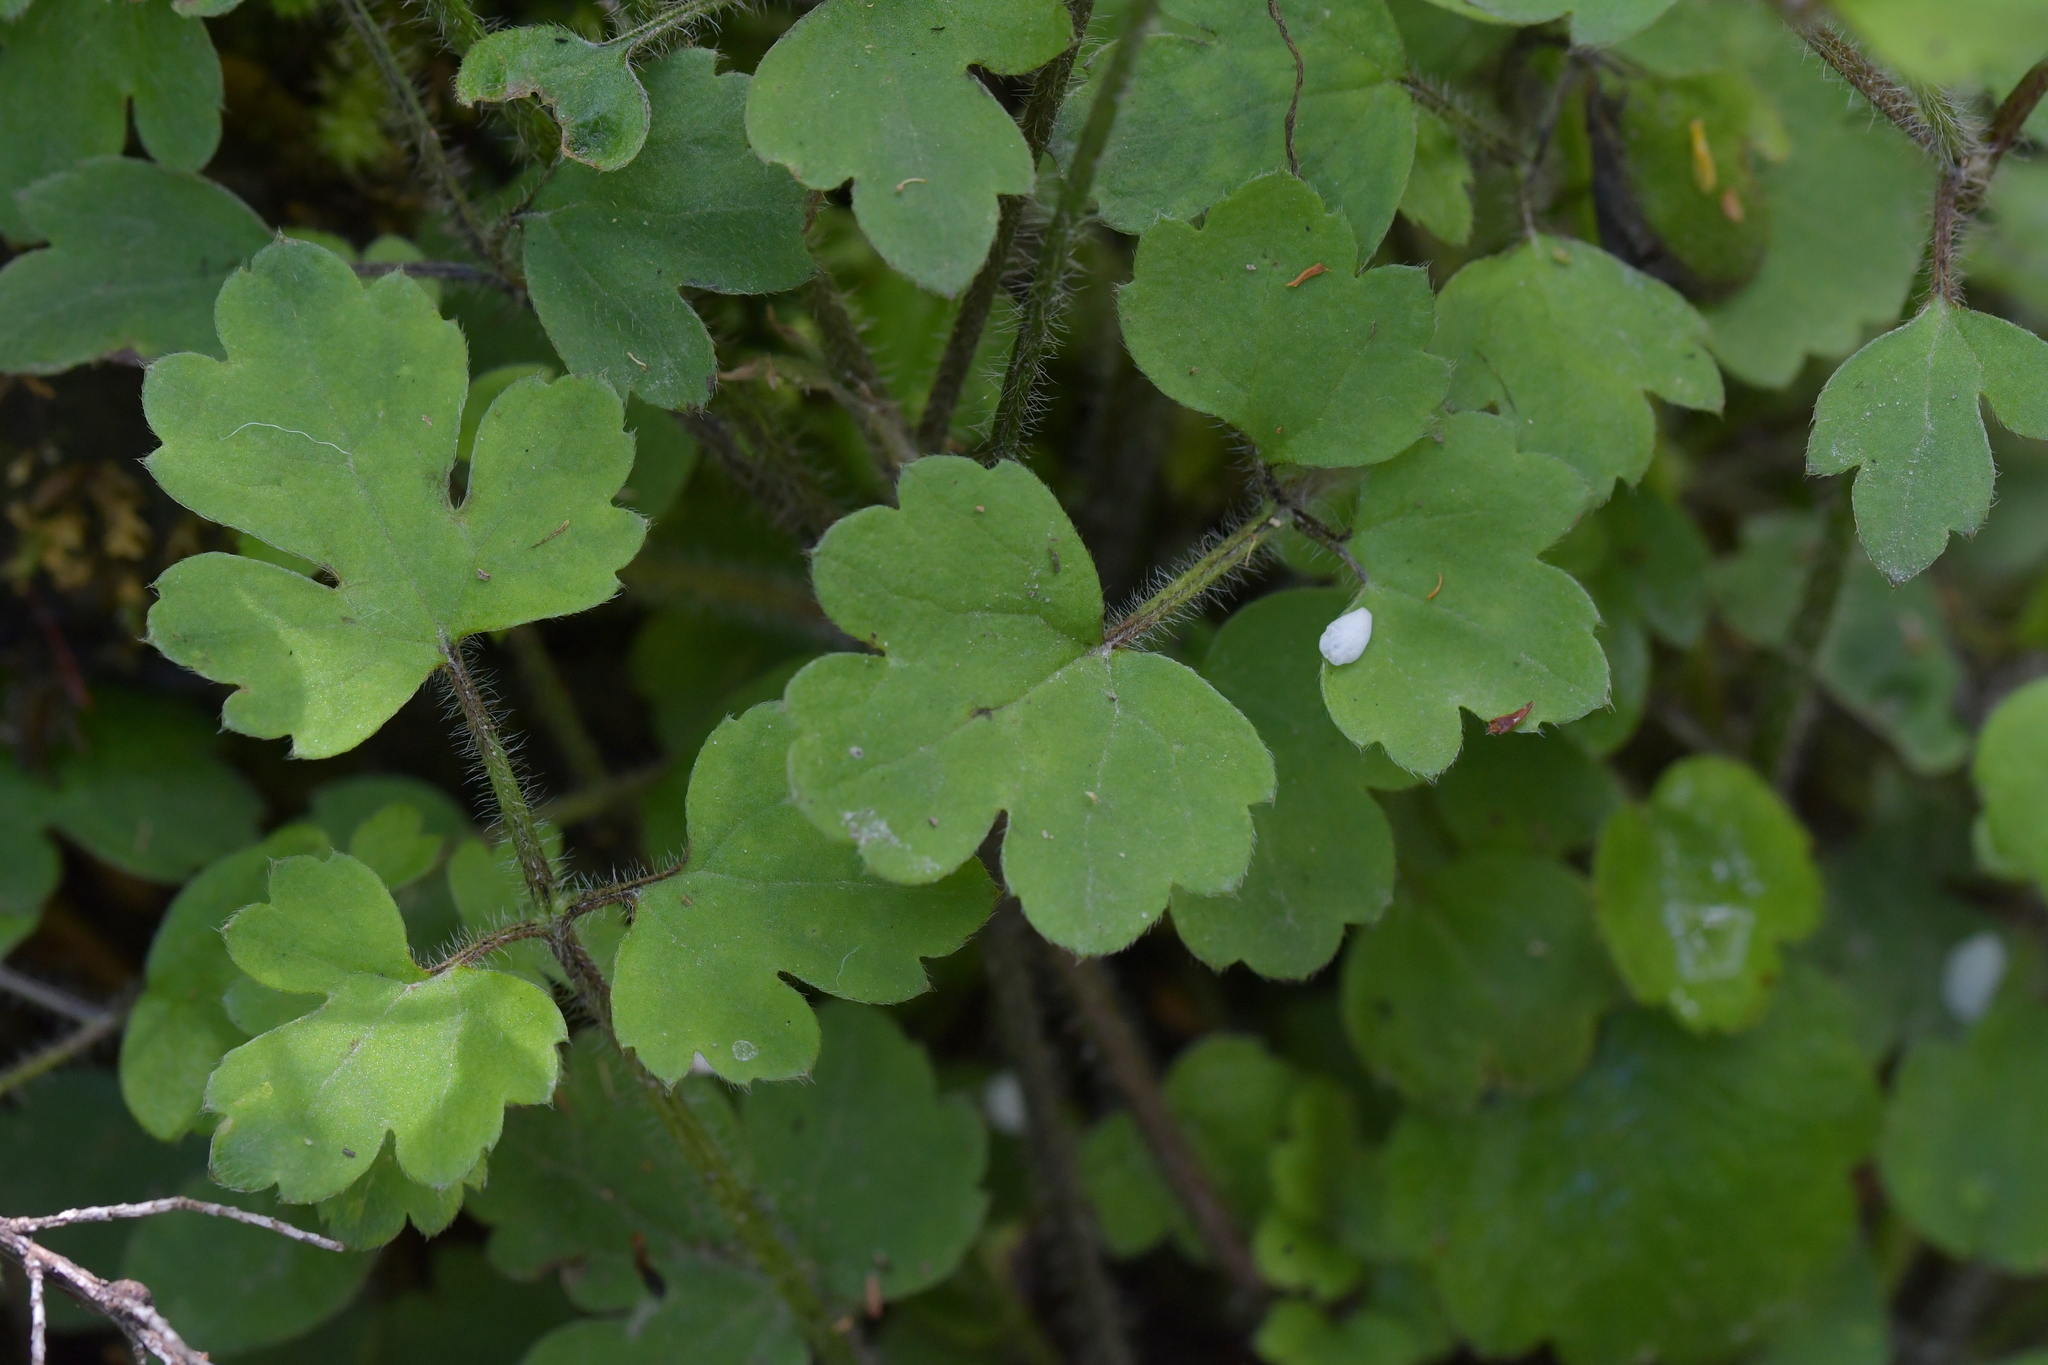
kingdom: Plantae
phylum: Tracheophyta
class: Magnoliopsida
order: Ranunculales
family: Ranunculaceae
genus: Ranunculus
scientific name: Ranunculus reflexus
